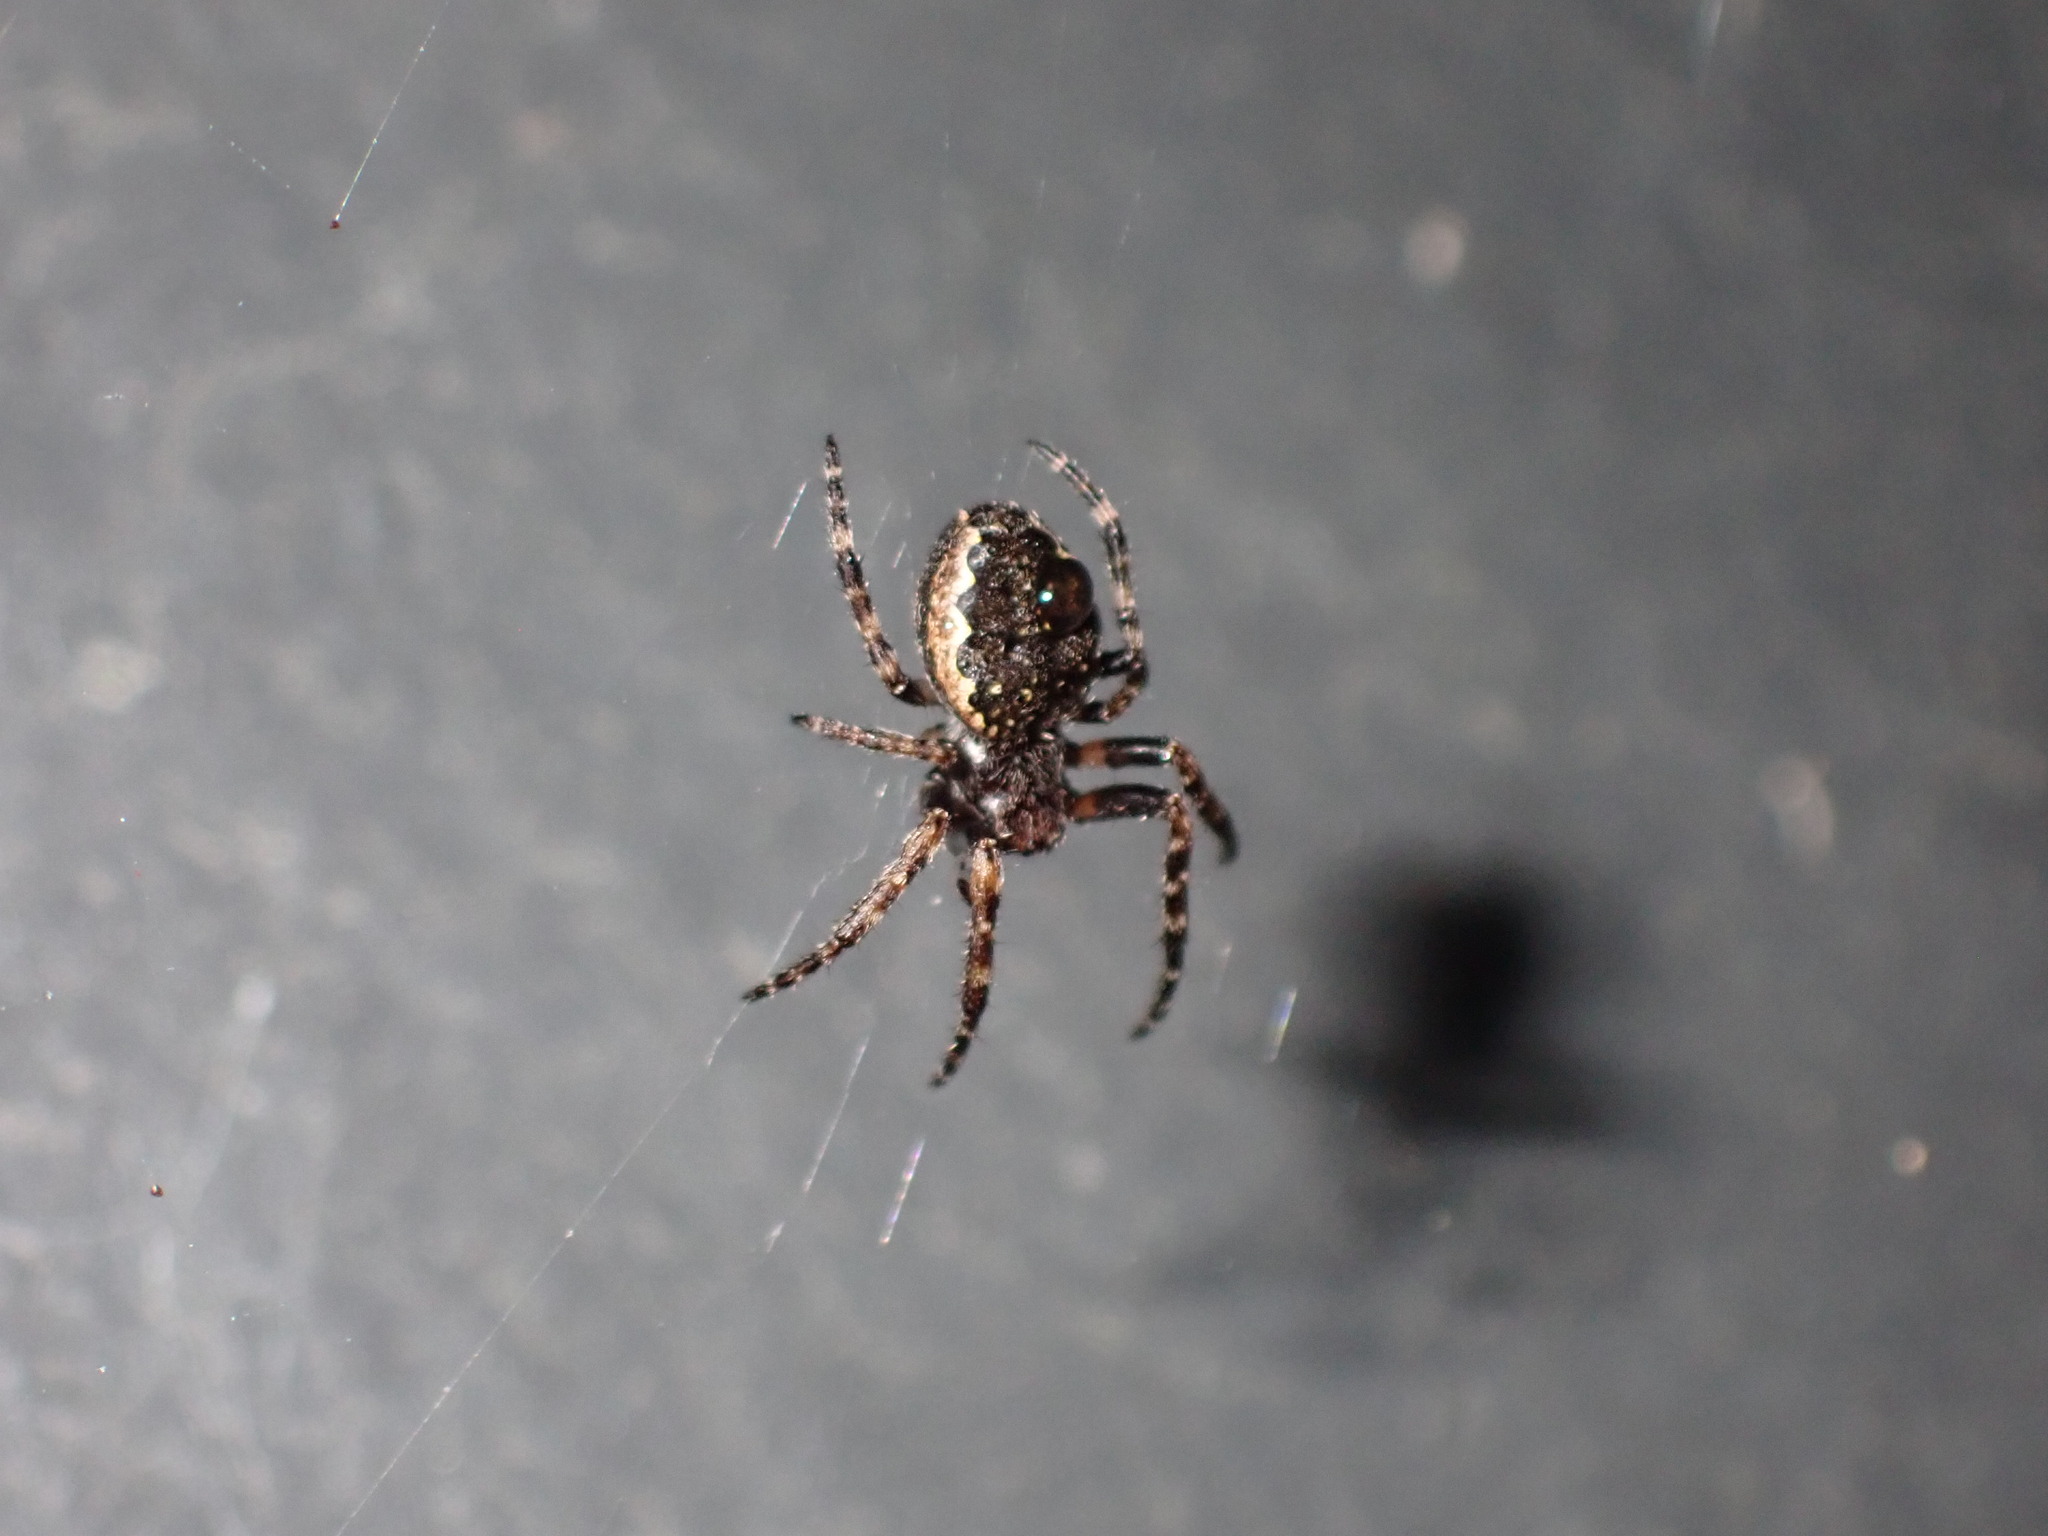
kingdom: Animalia
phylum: Arthropoda
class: Arachnida
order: Araneae
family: Araneidae
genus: Nuctenea
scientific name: Nuctenea umbratica
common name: Toad spider
